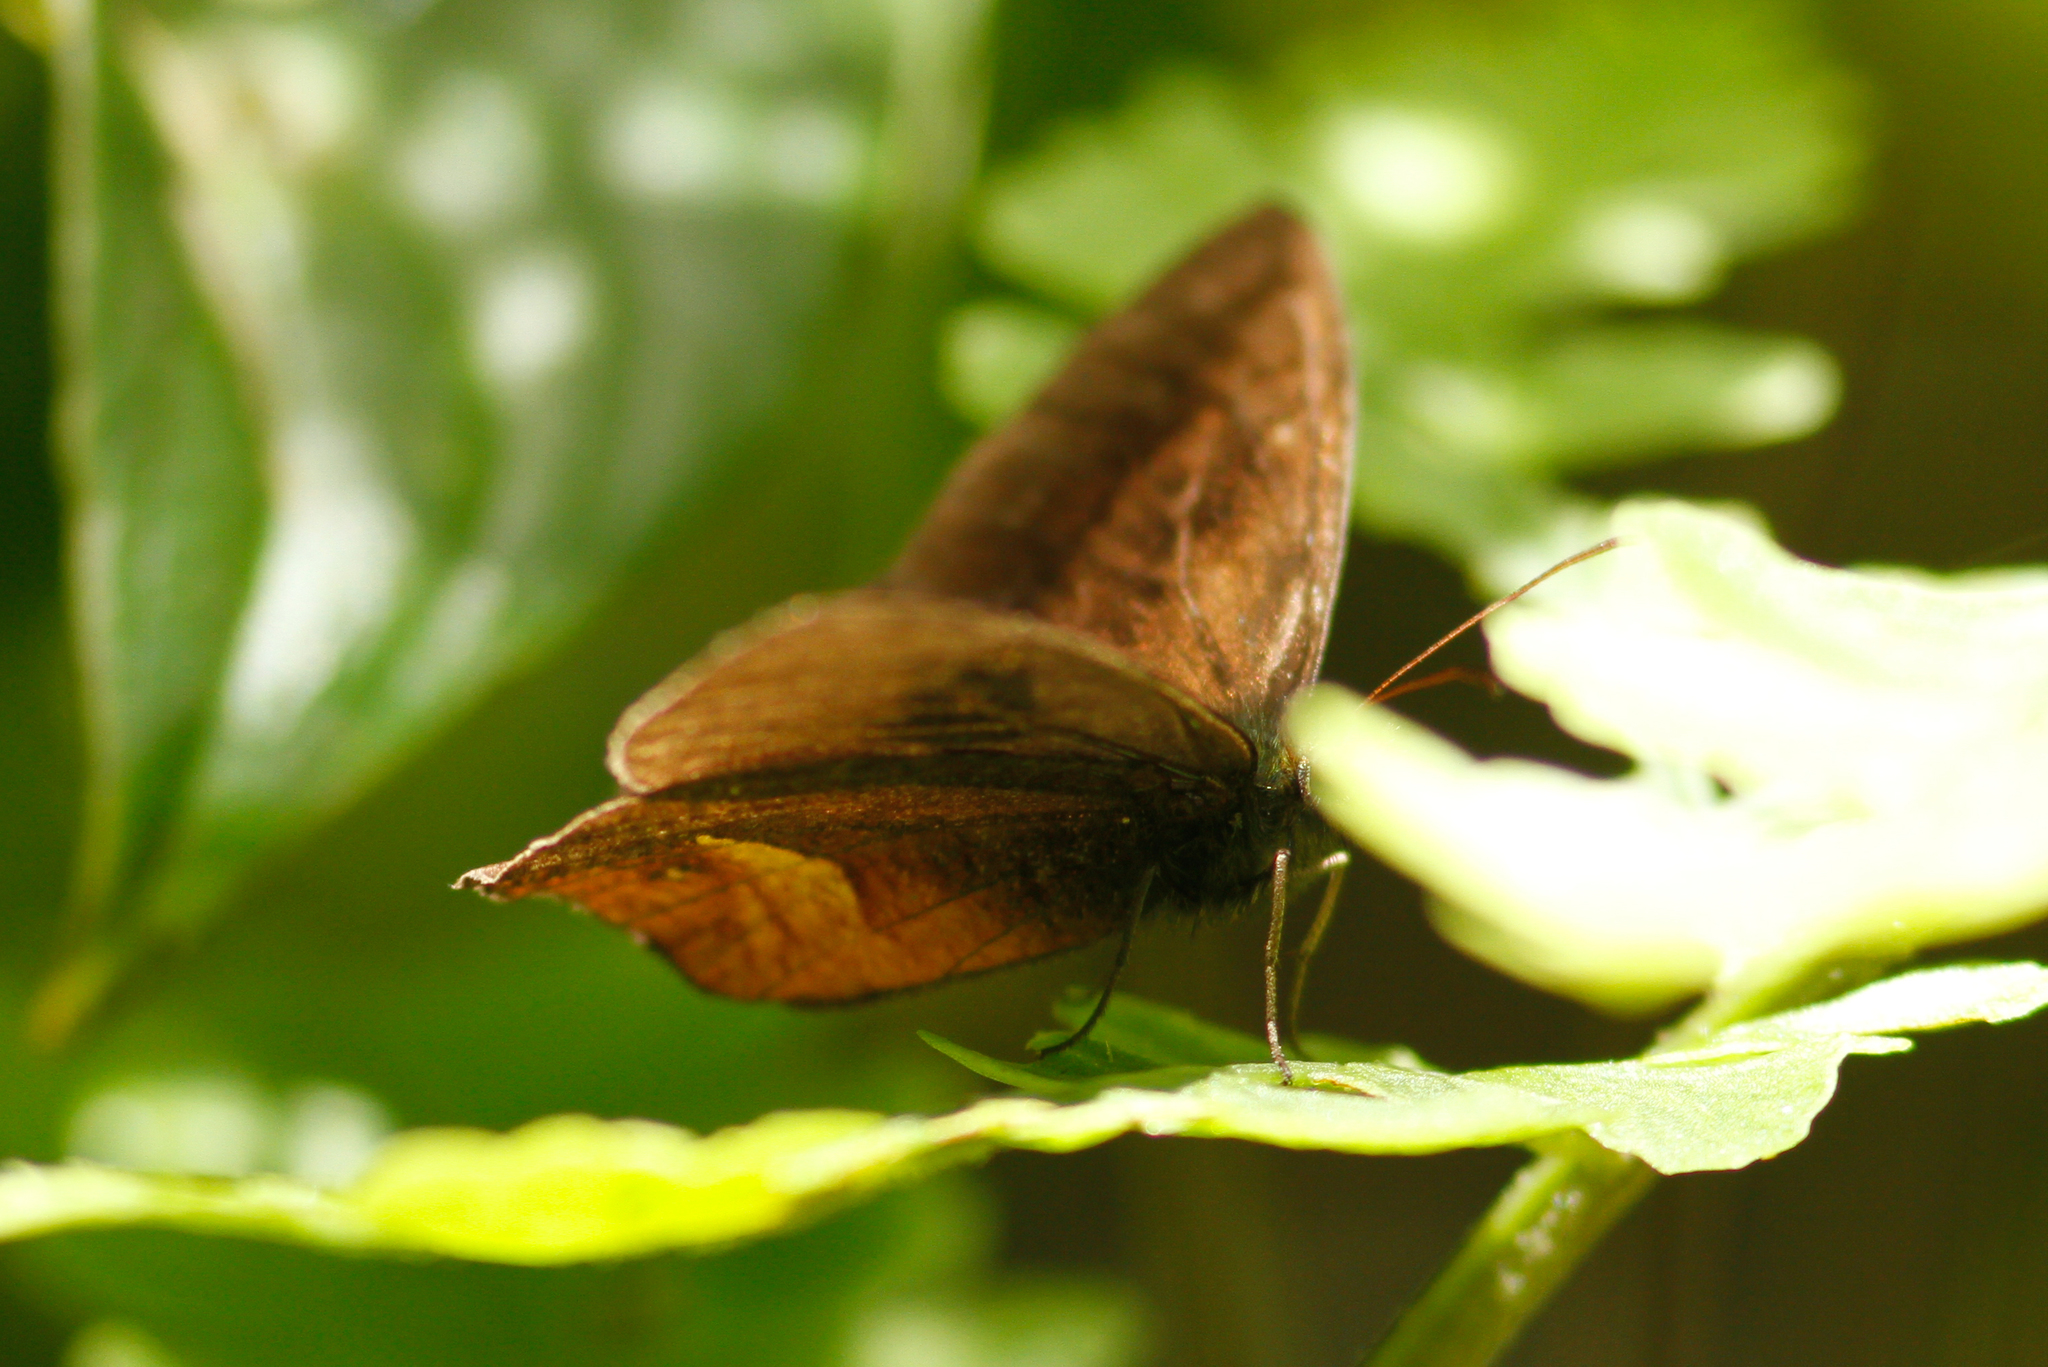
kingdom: Animalia
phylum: Arthropoda
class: Insecta
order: Lepidoptera
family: Nymphalidae
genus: Eretris
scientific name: Eretris apuleja
